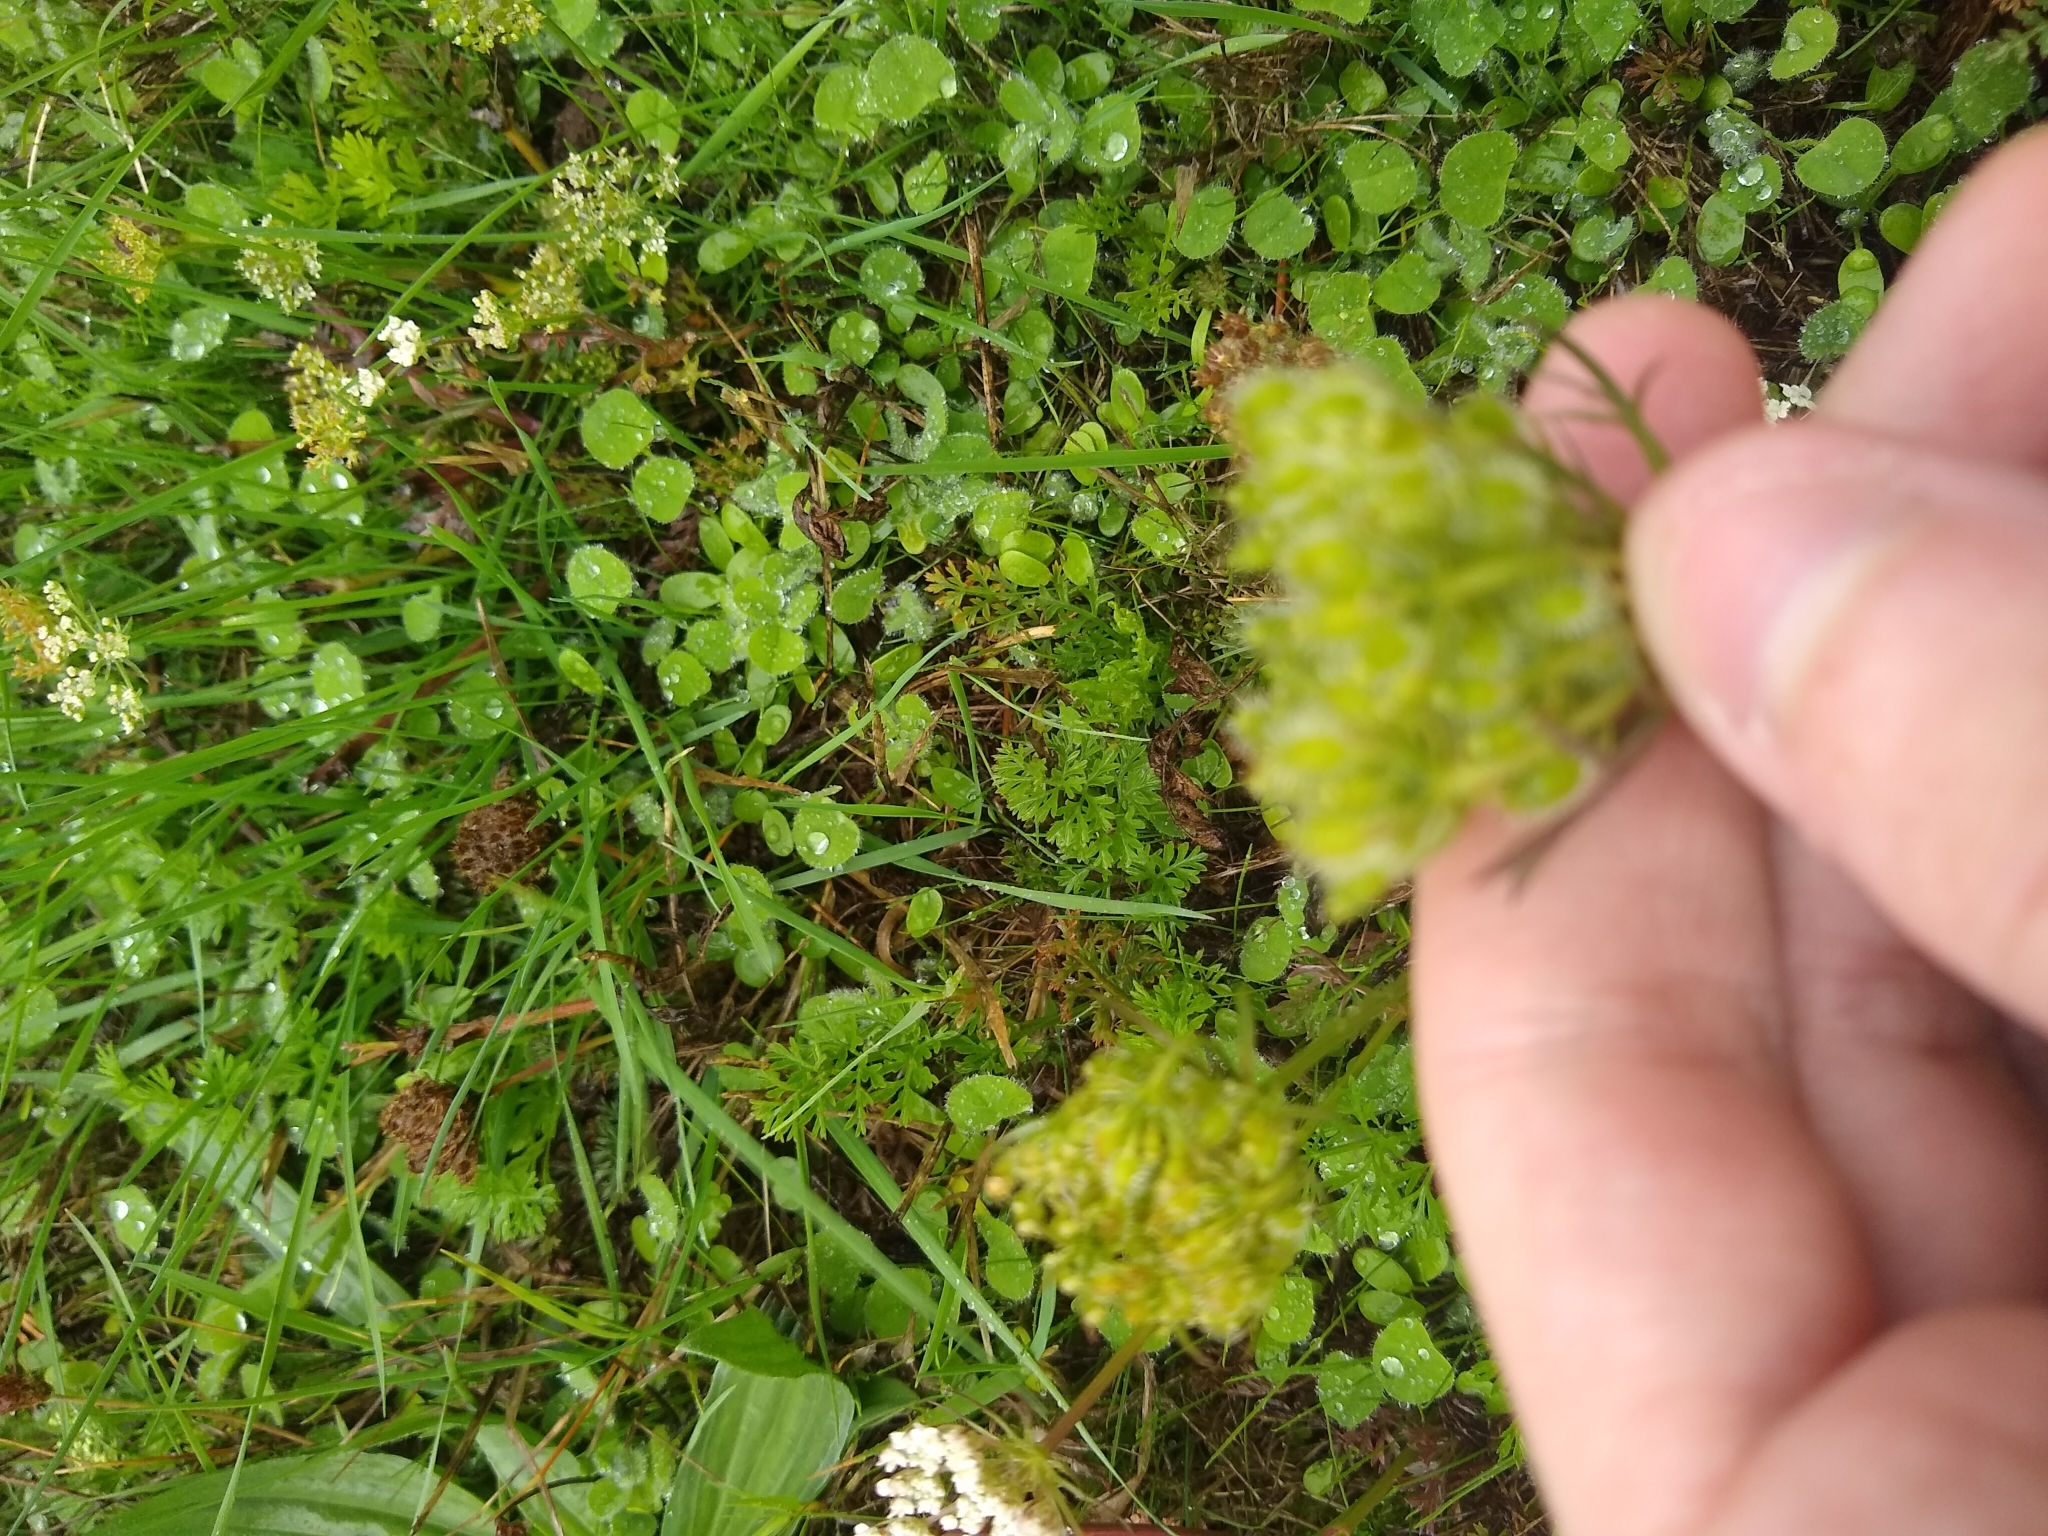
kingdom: Plantae
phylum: Tracheophyta
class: Magnoliopsida
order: Apiales
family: Apiaceae
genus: Daucus
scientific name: Daucus carota
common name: Wild carrot
